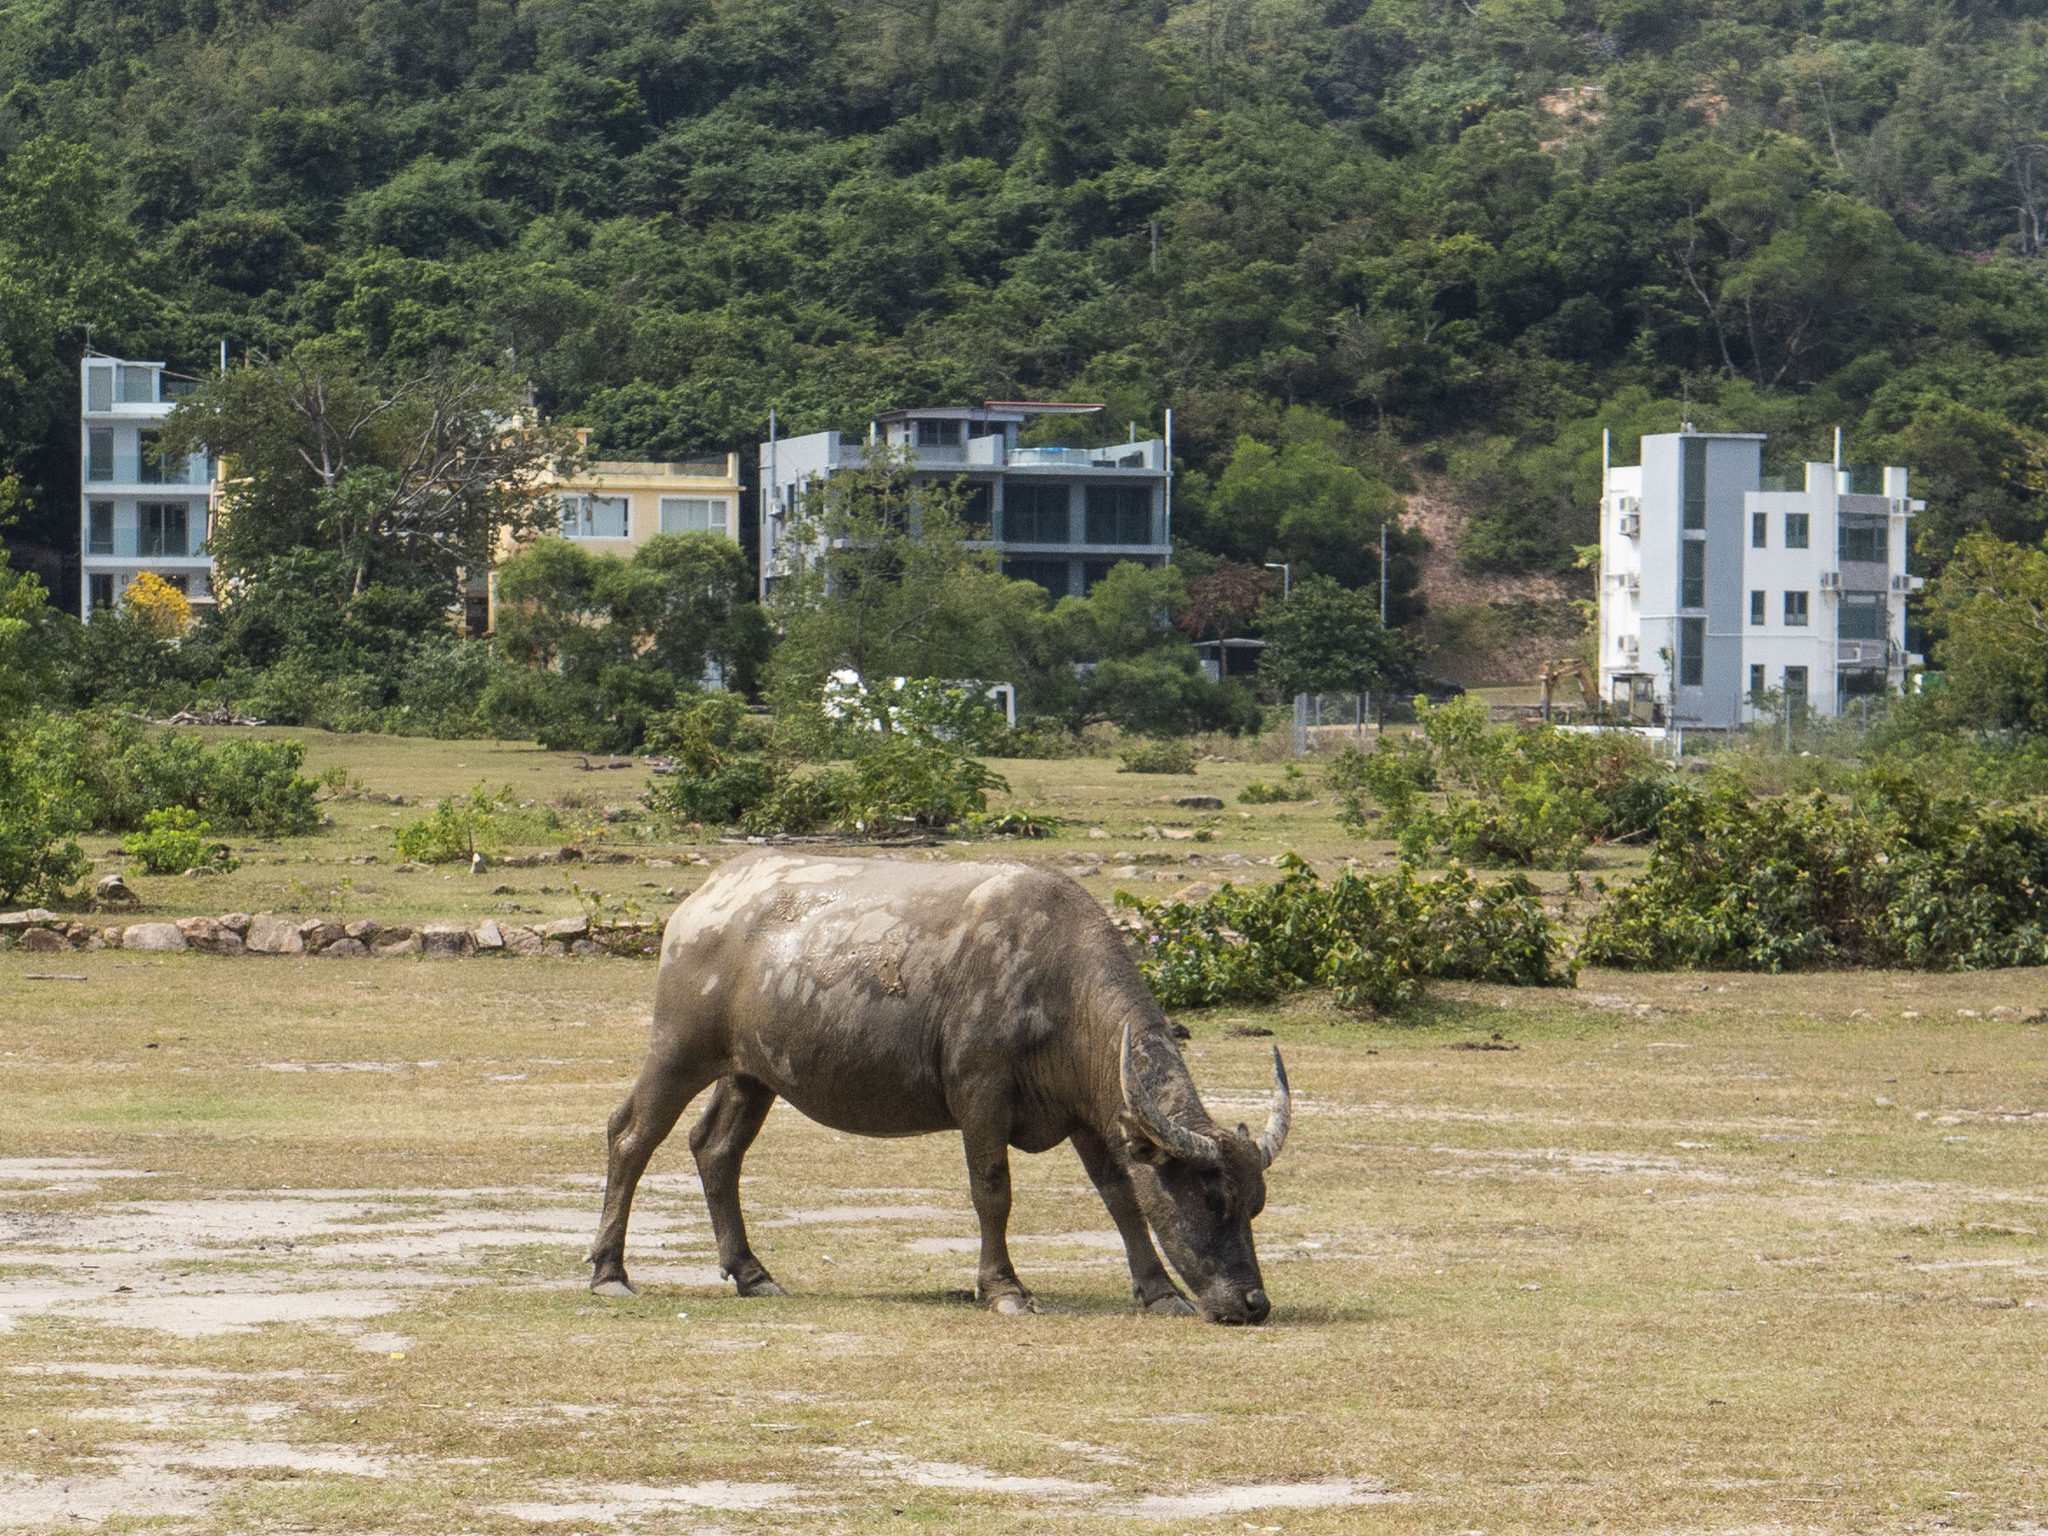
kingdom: Animalia
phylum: Chordata
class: Mammalia
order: Artiodactyla
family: Bovidae
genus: Bubalus
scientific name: Bubalus bubalis
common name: Water buffalo
